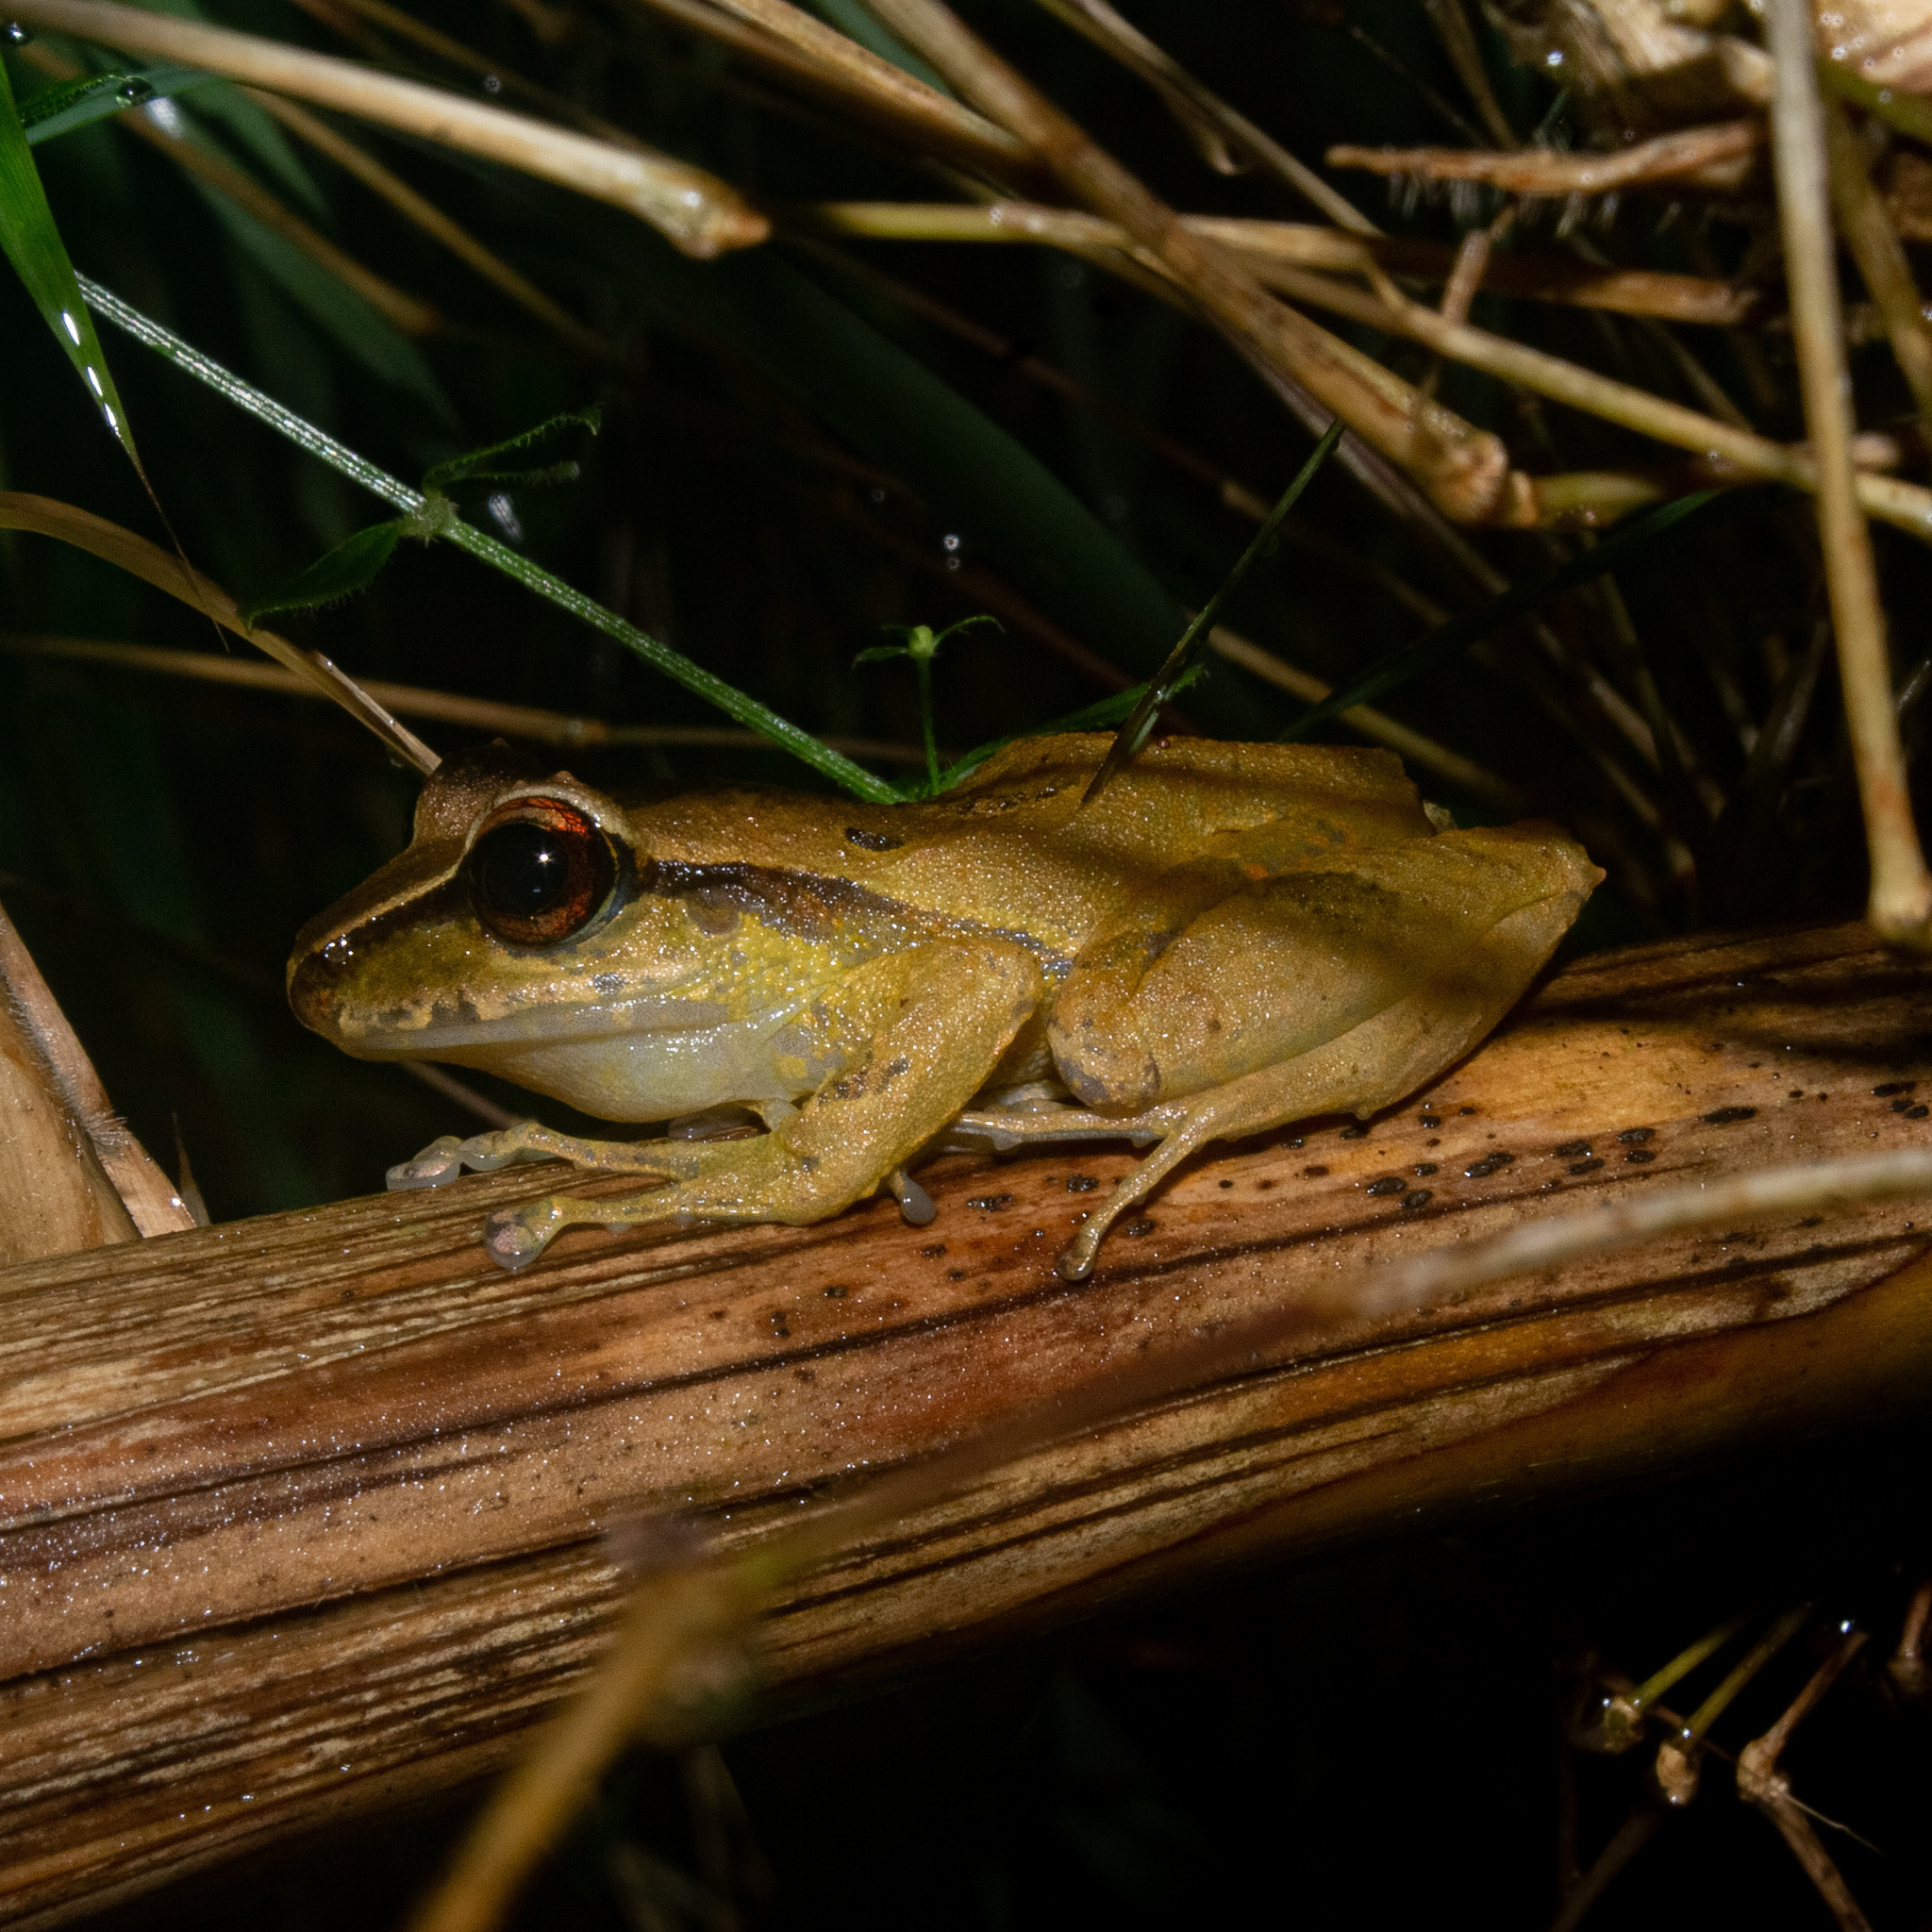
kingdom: Animalia
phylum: Chordata
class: Amphibia
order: Anura
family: Craugastoridae
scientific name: Craugastoridae
